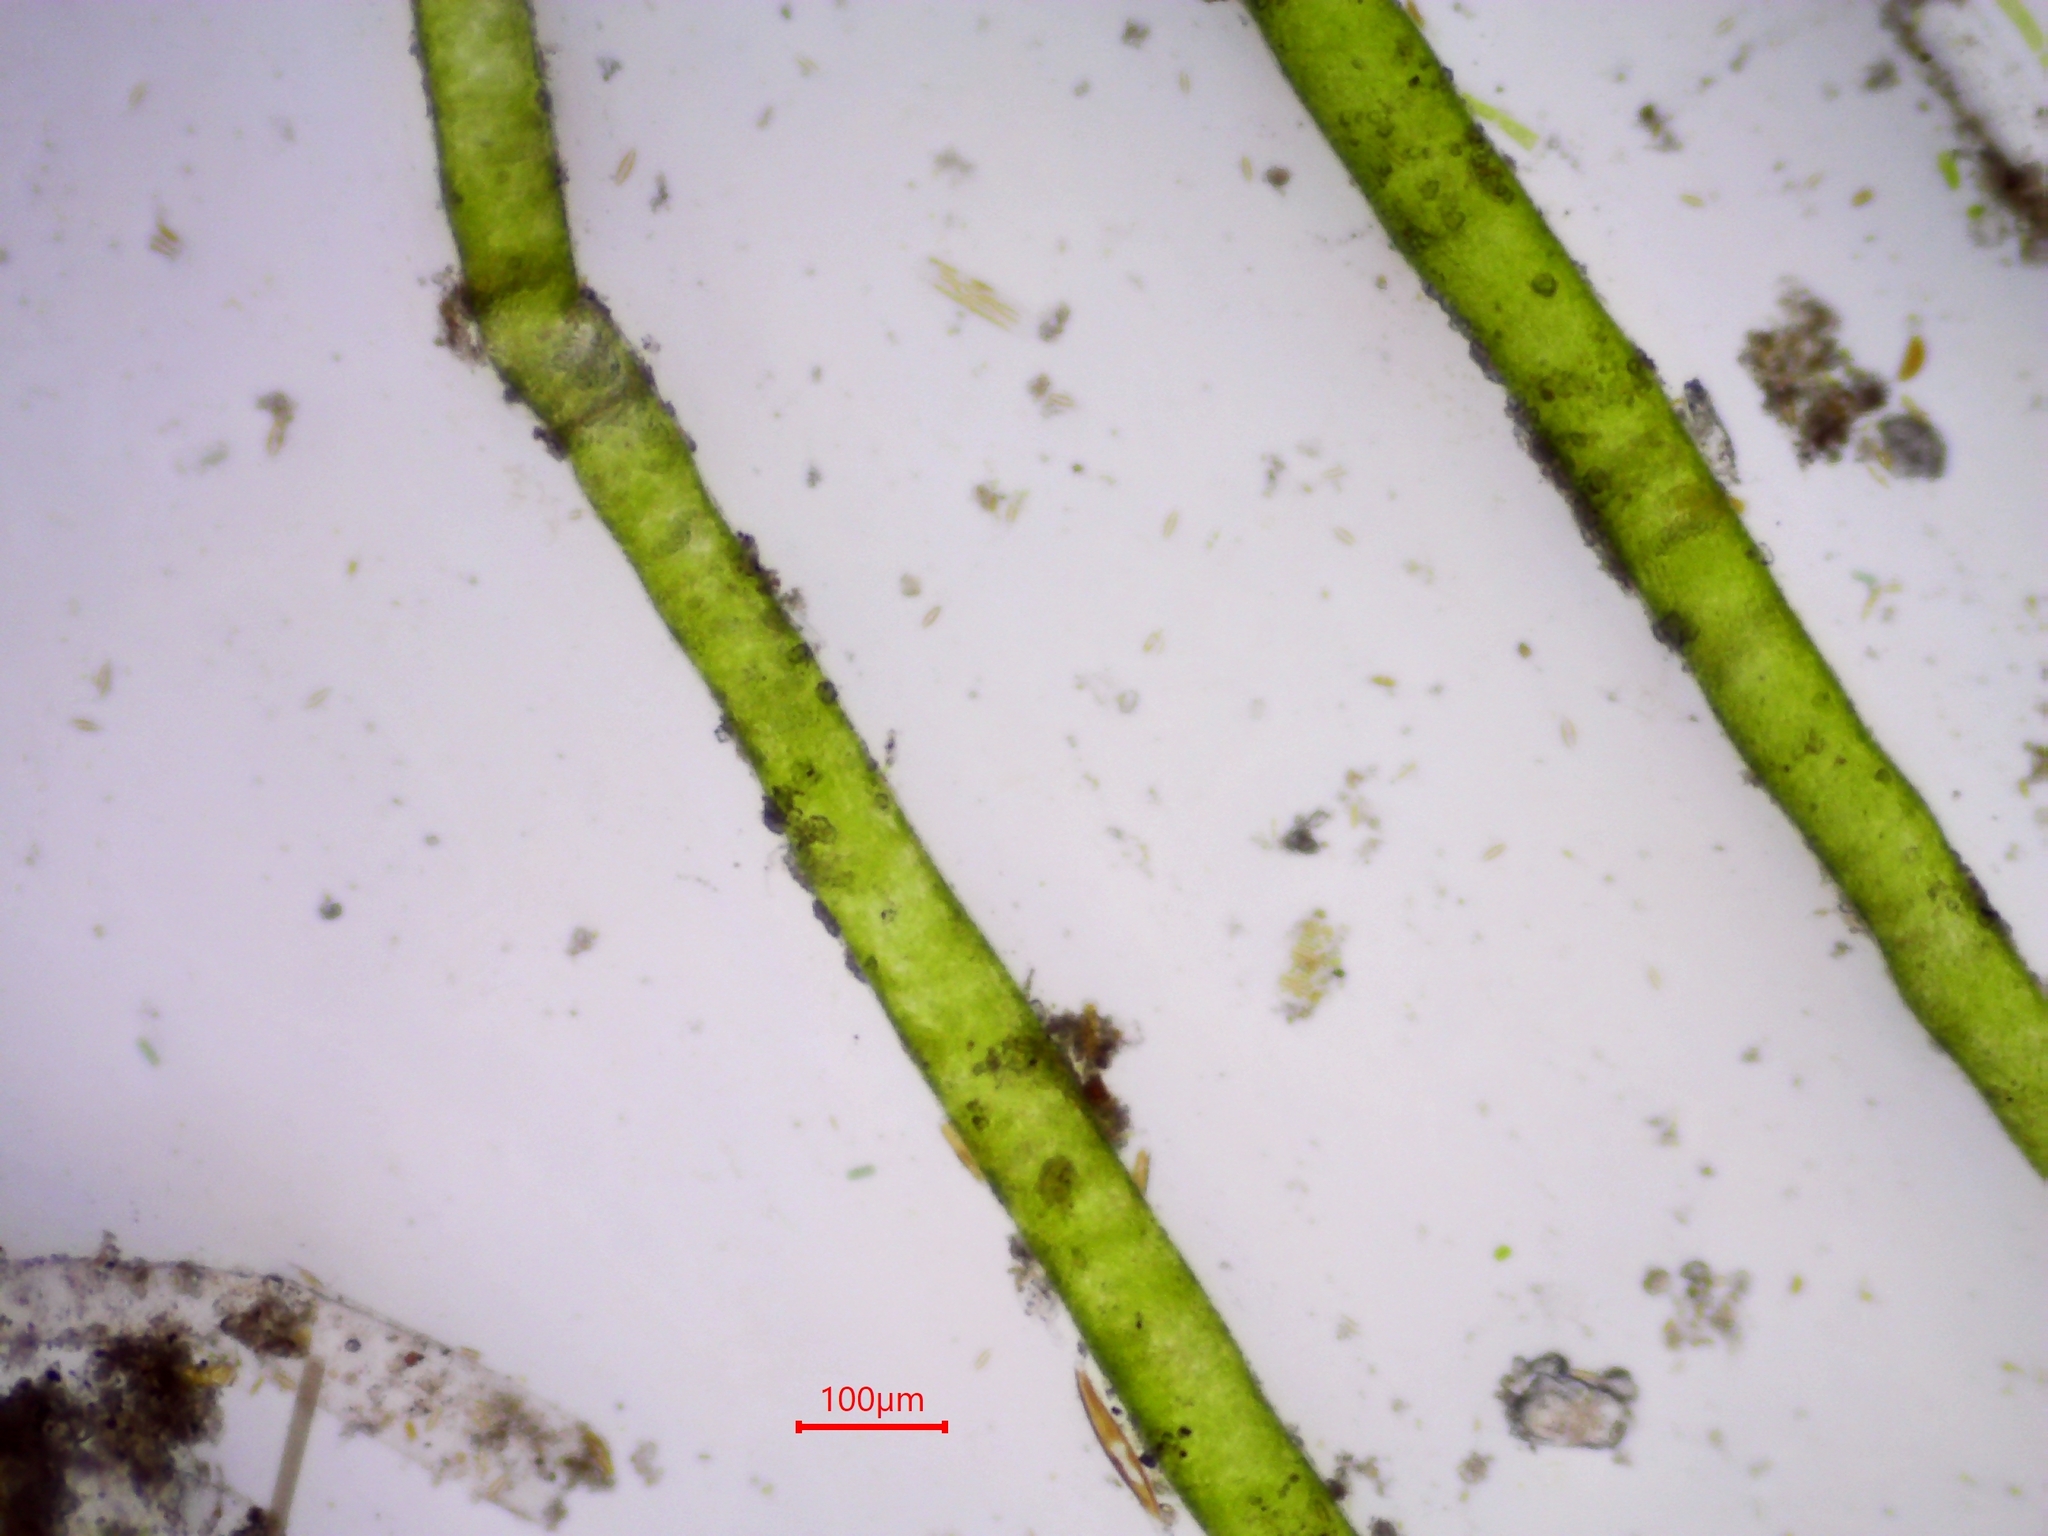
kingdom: Chromista
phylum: Ochrophyta
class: Xanthophyceae
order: Vaucheriales
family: Vaucheriaceae
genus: Vaucheria
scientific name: Vaucheria
